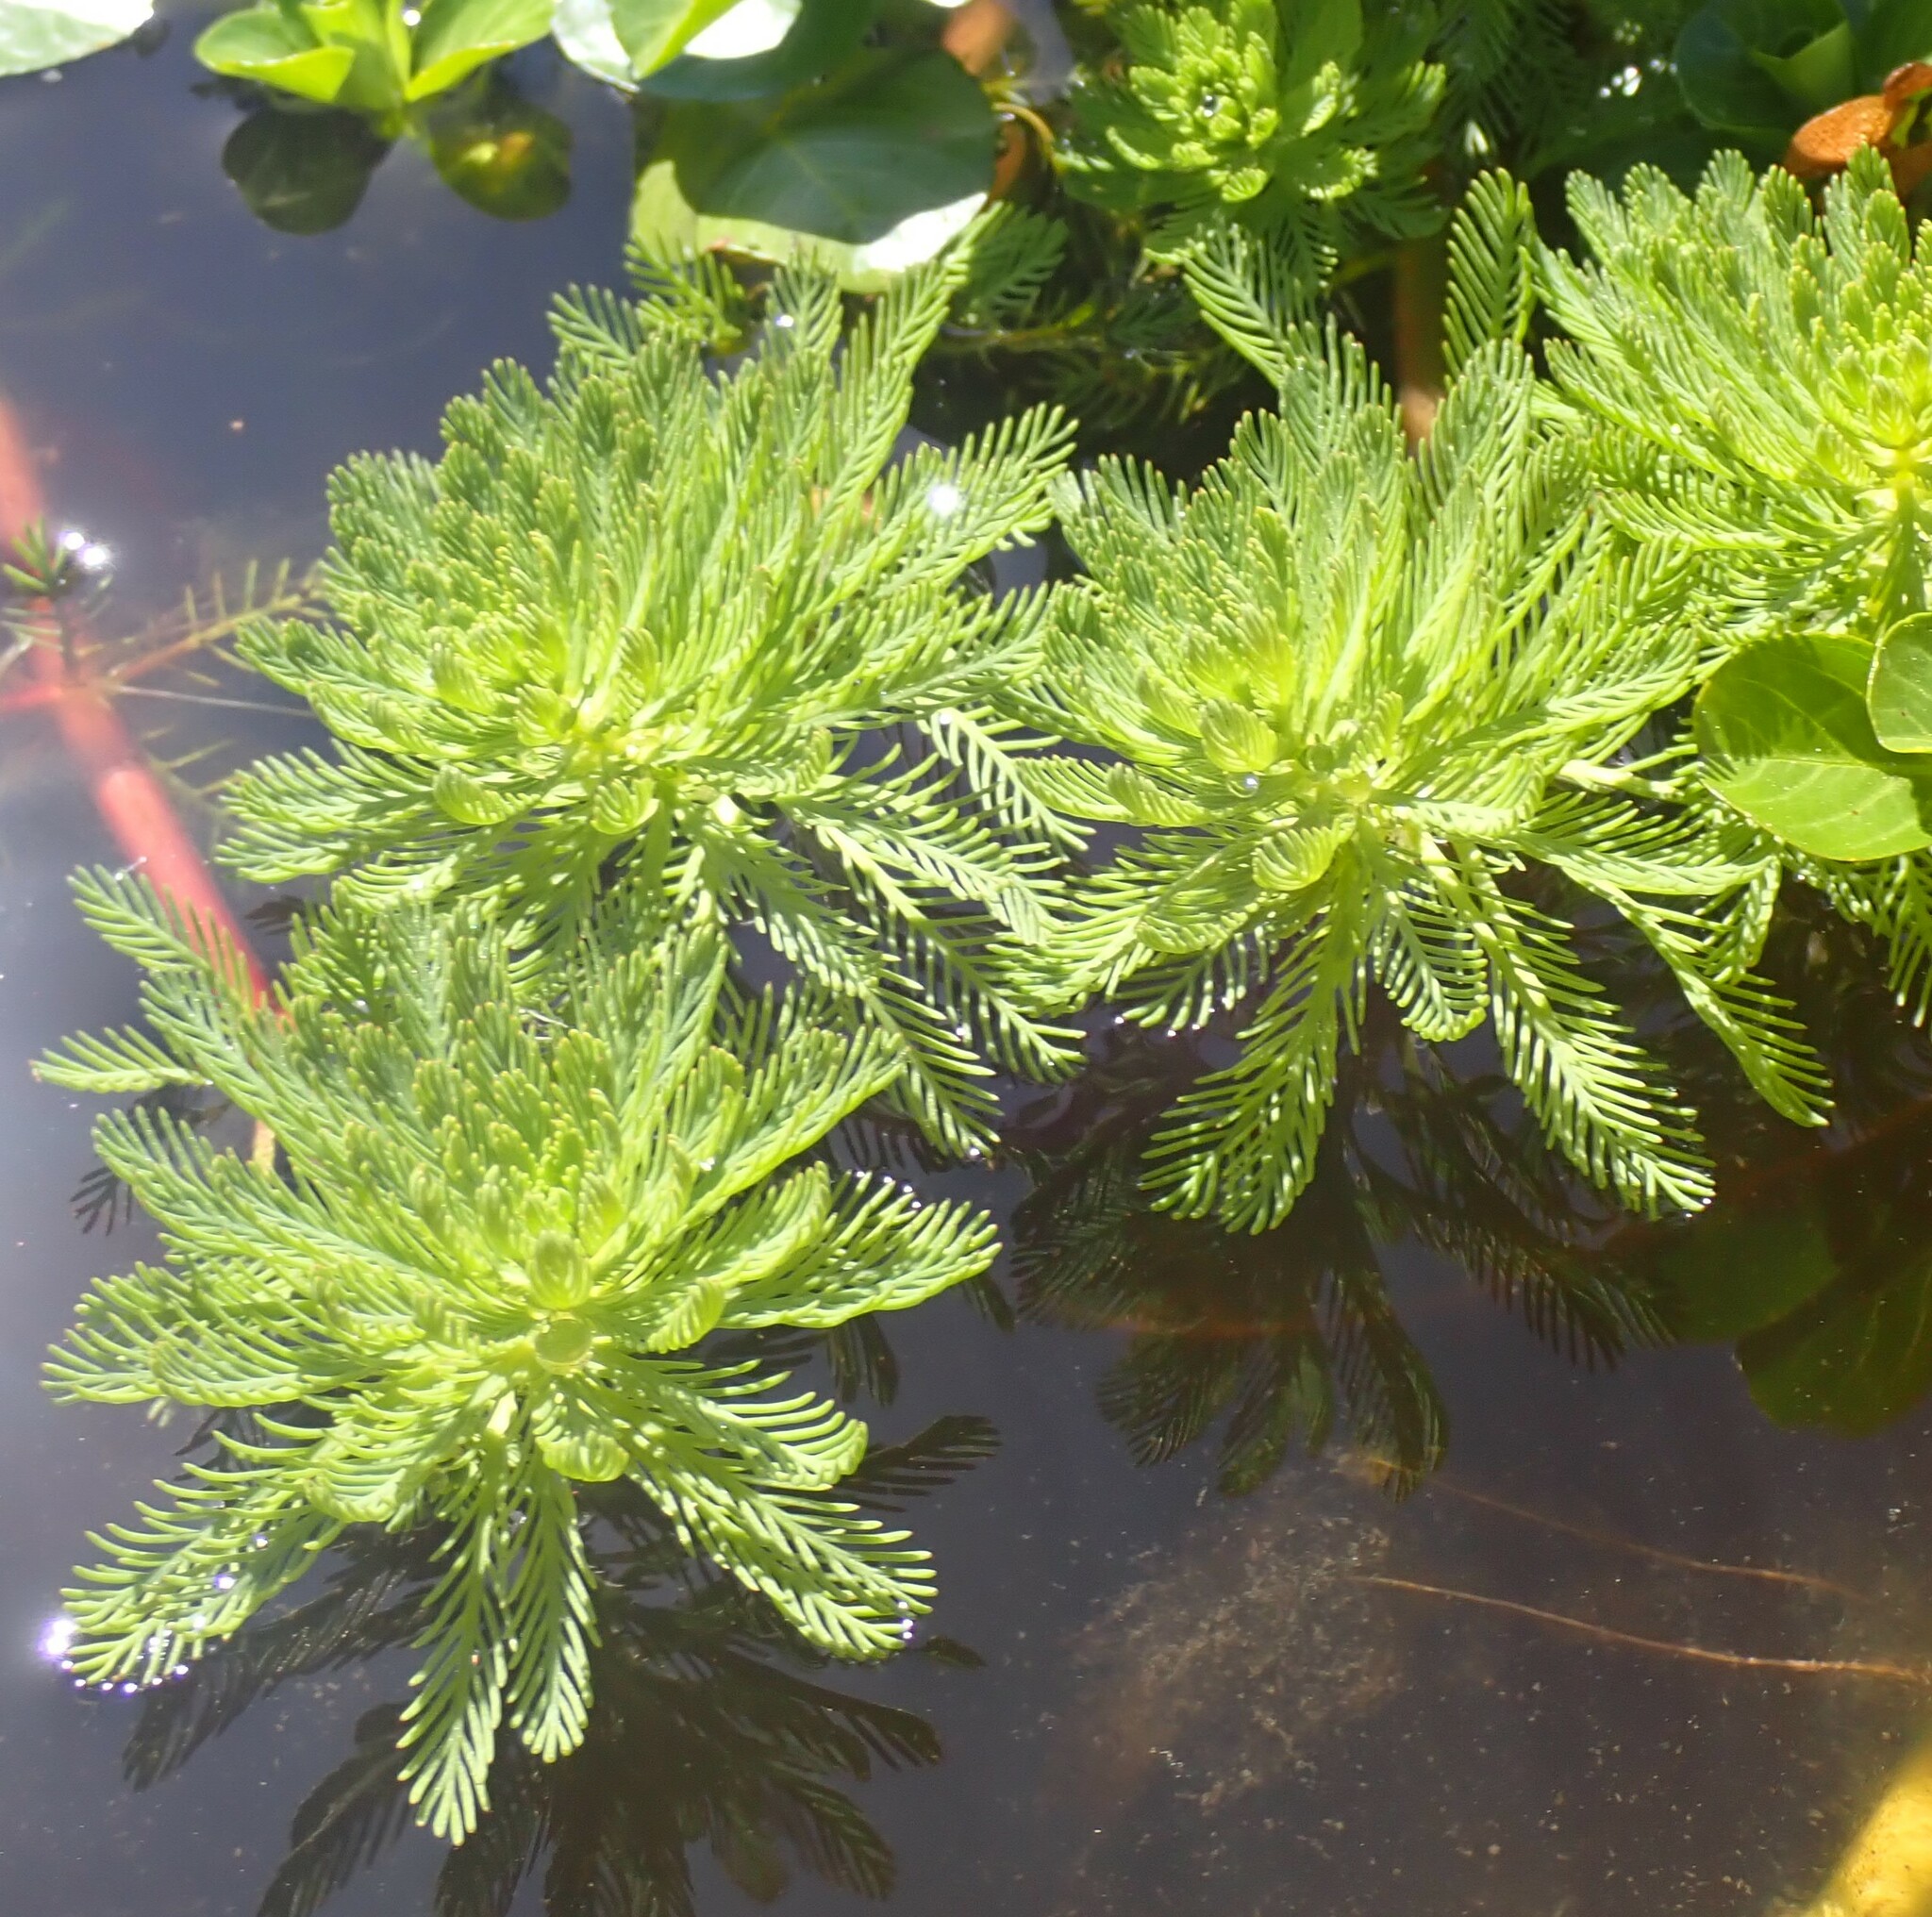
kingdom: Plantae
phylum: Tracheophyta
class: Magnoliopsida
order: Saxifragales
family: Haloragaceae
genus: Myriophyllum
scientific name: Myriophyllum aquaticum
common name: Parrot's feather
